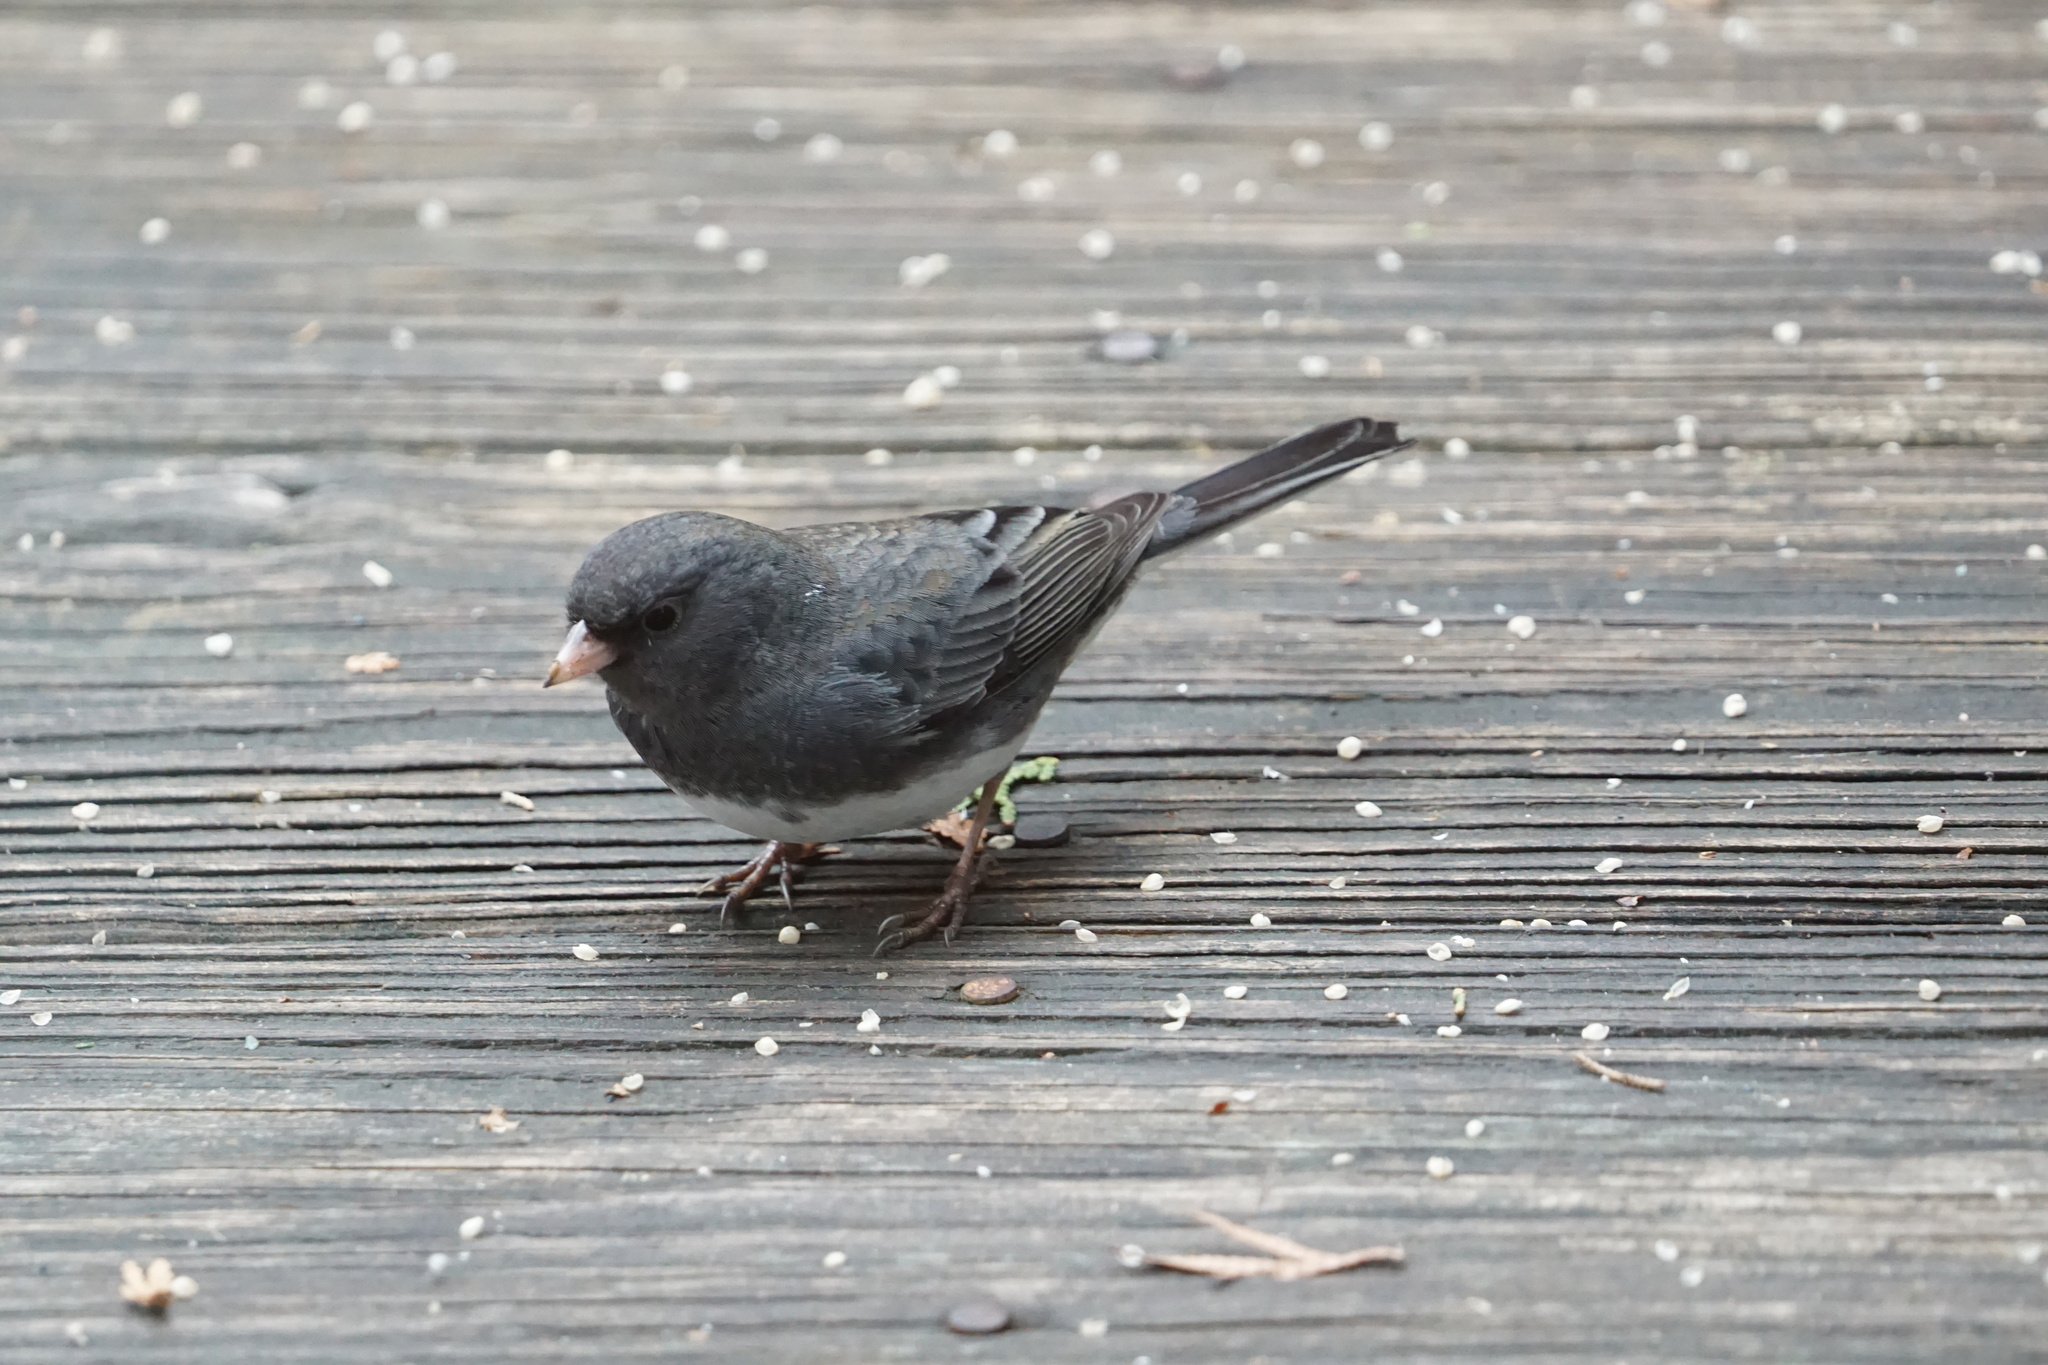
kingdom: Animalia
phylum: Chordata
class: Aves
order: Passeriformes
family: Passerellidae
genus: Junco
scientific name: Junco hyemalis
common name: Dark-eyed junco
